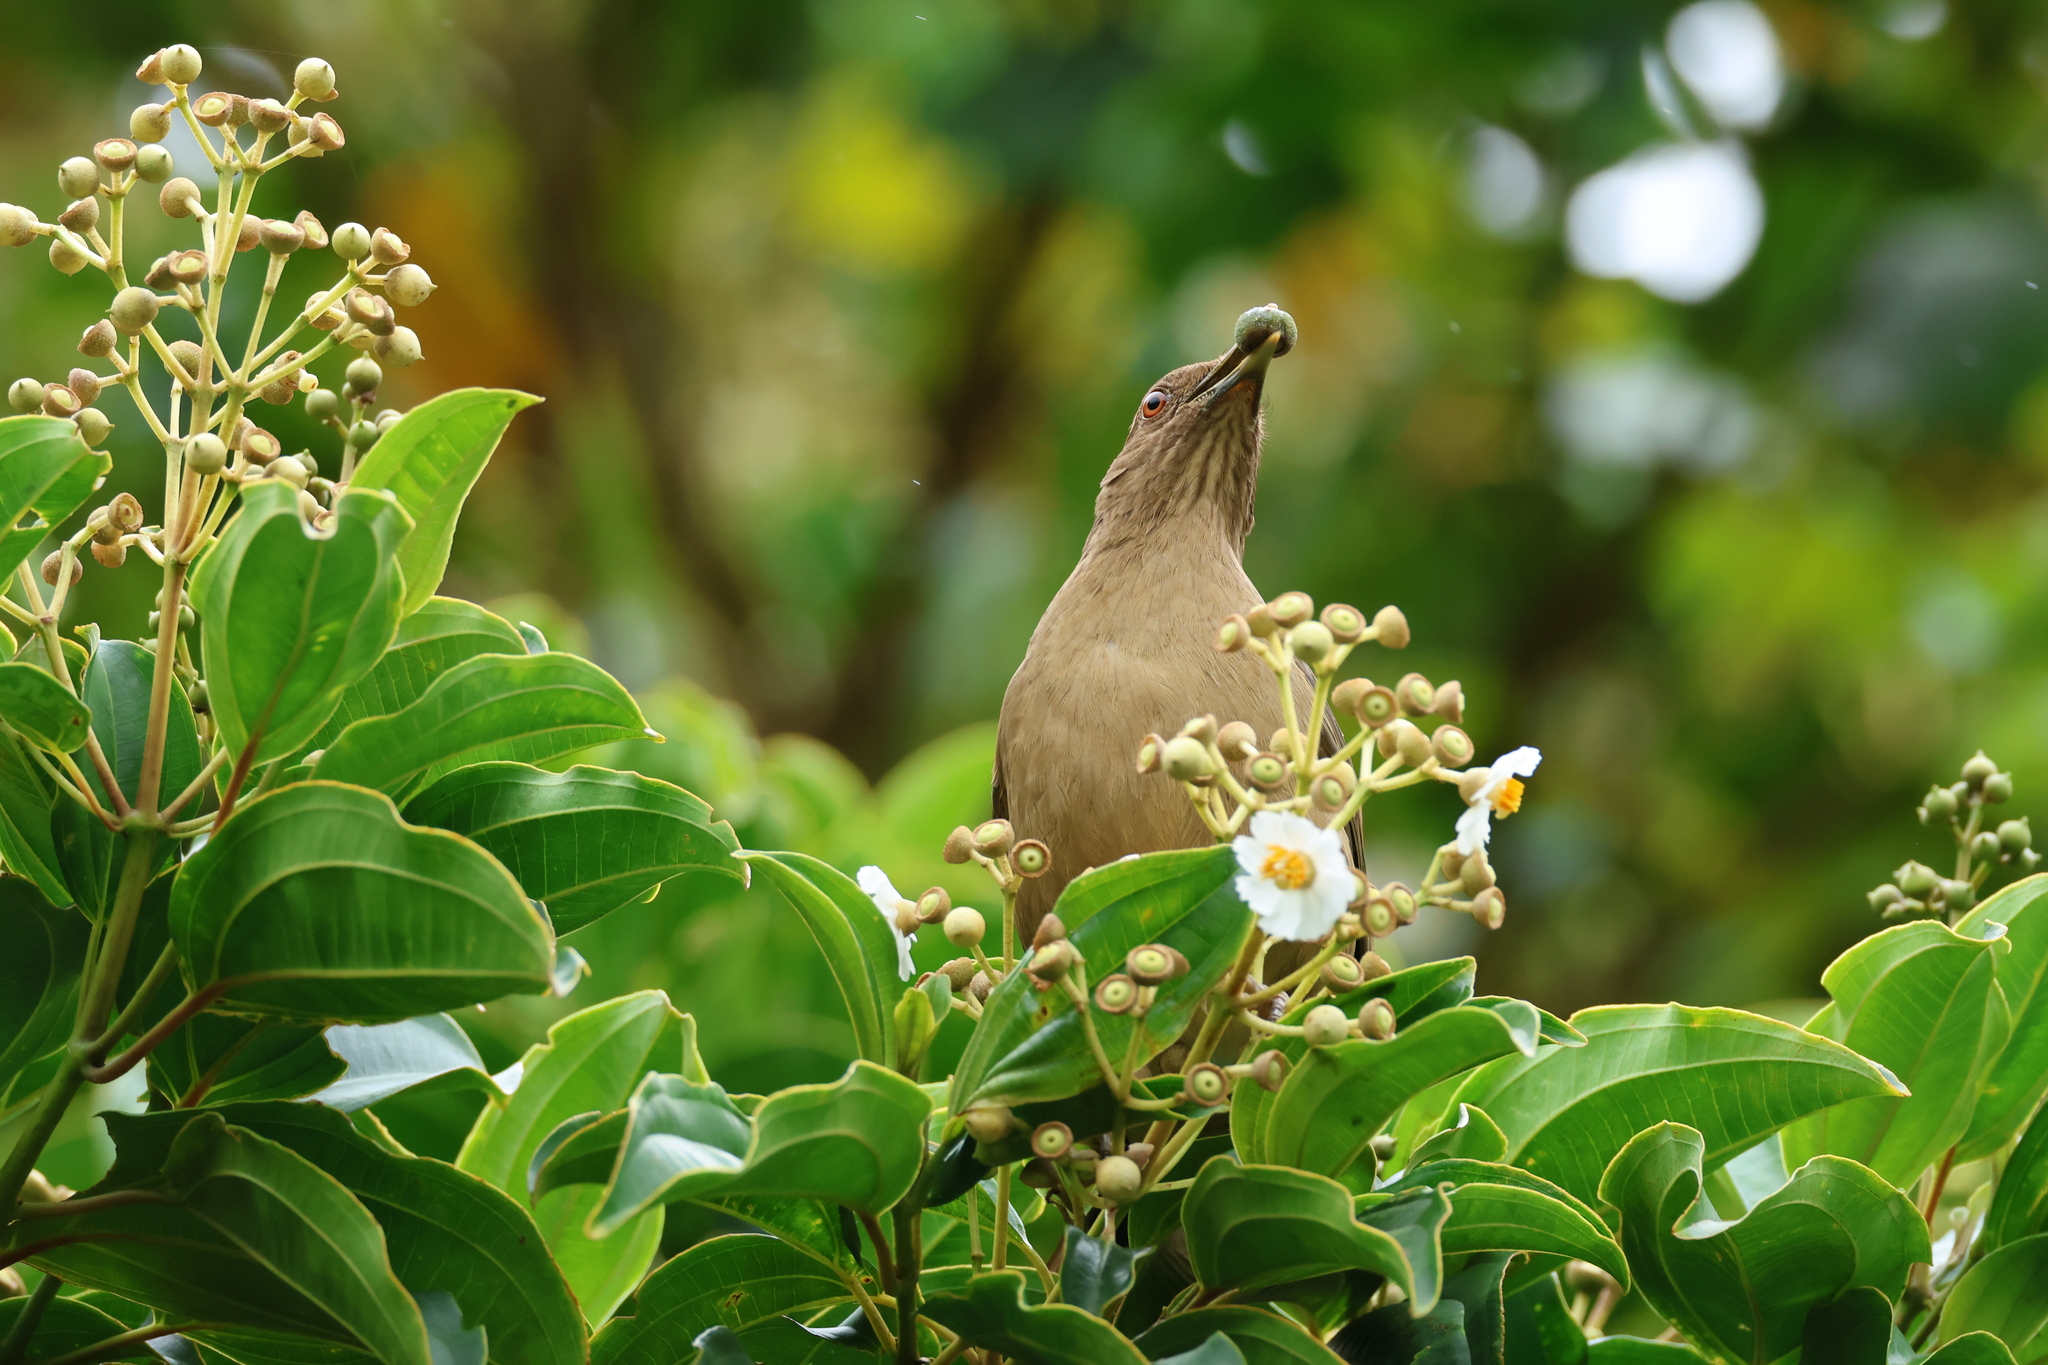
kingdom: Animalia
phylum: Chordata
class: Aves
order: Passeriformes
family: Turdidae
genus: Turdus
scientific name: Turdus grayi
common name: Clay-colored thrush
